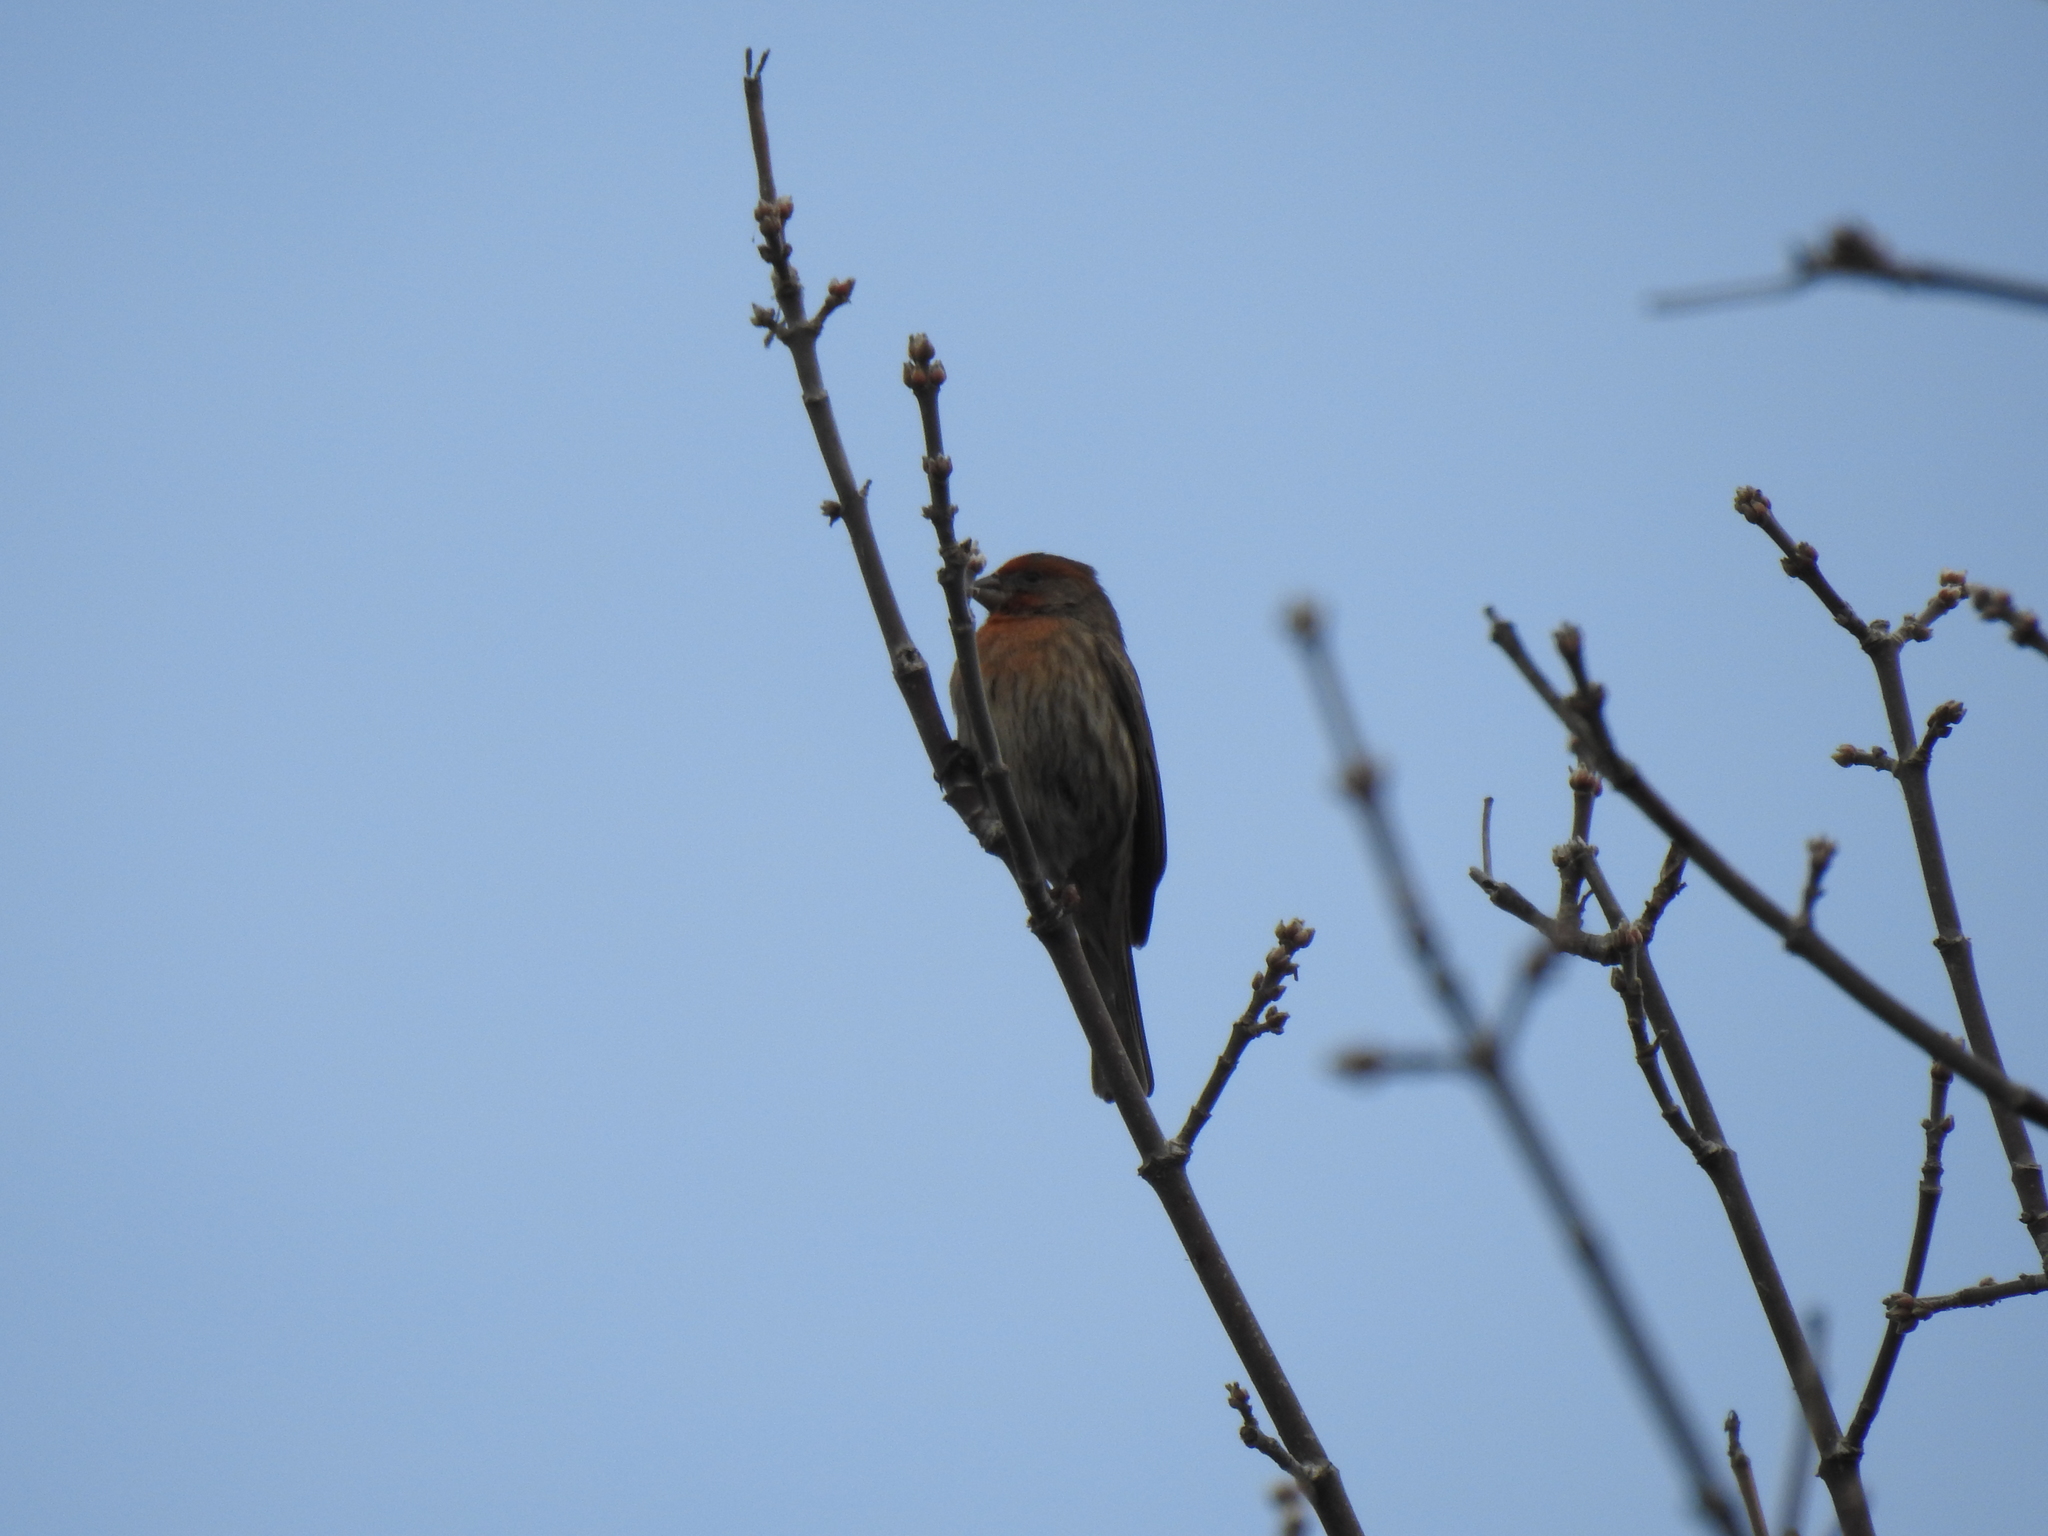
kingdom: Animalia
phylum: Chordata
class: Aves
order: Passeriformes
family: Fringillidae
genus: Haemorhous
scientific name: Haemorhous mexicanus
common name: House finch
